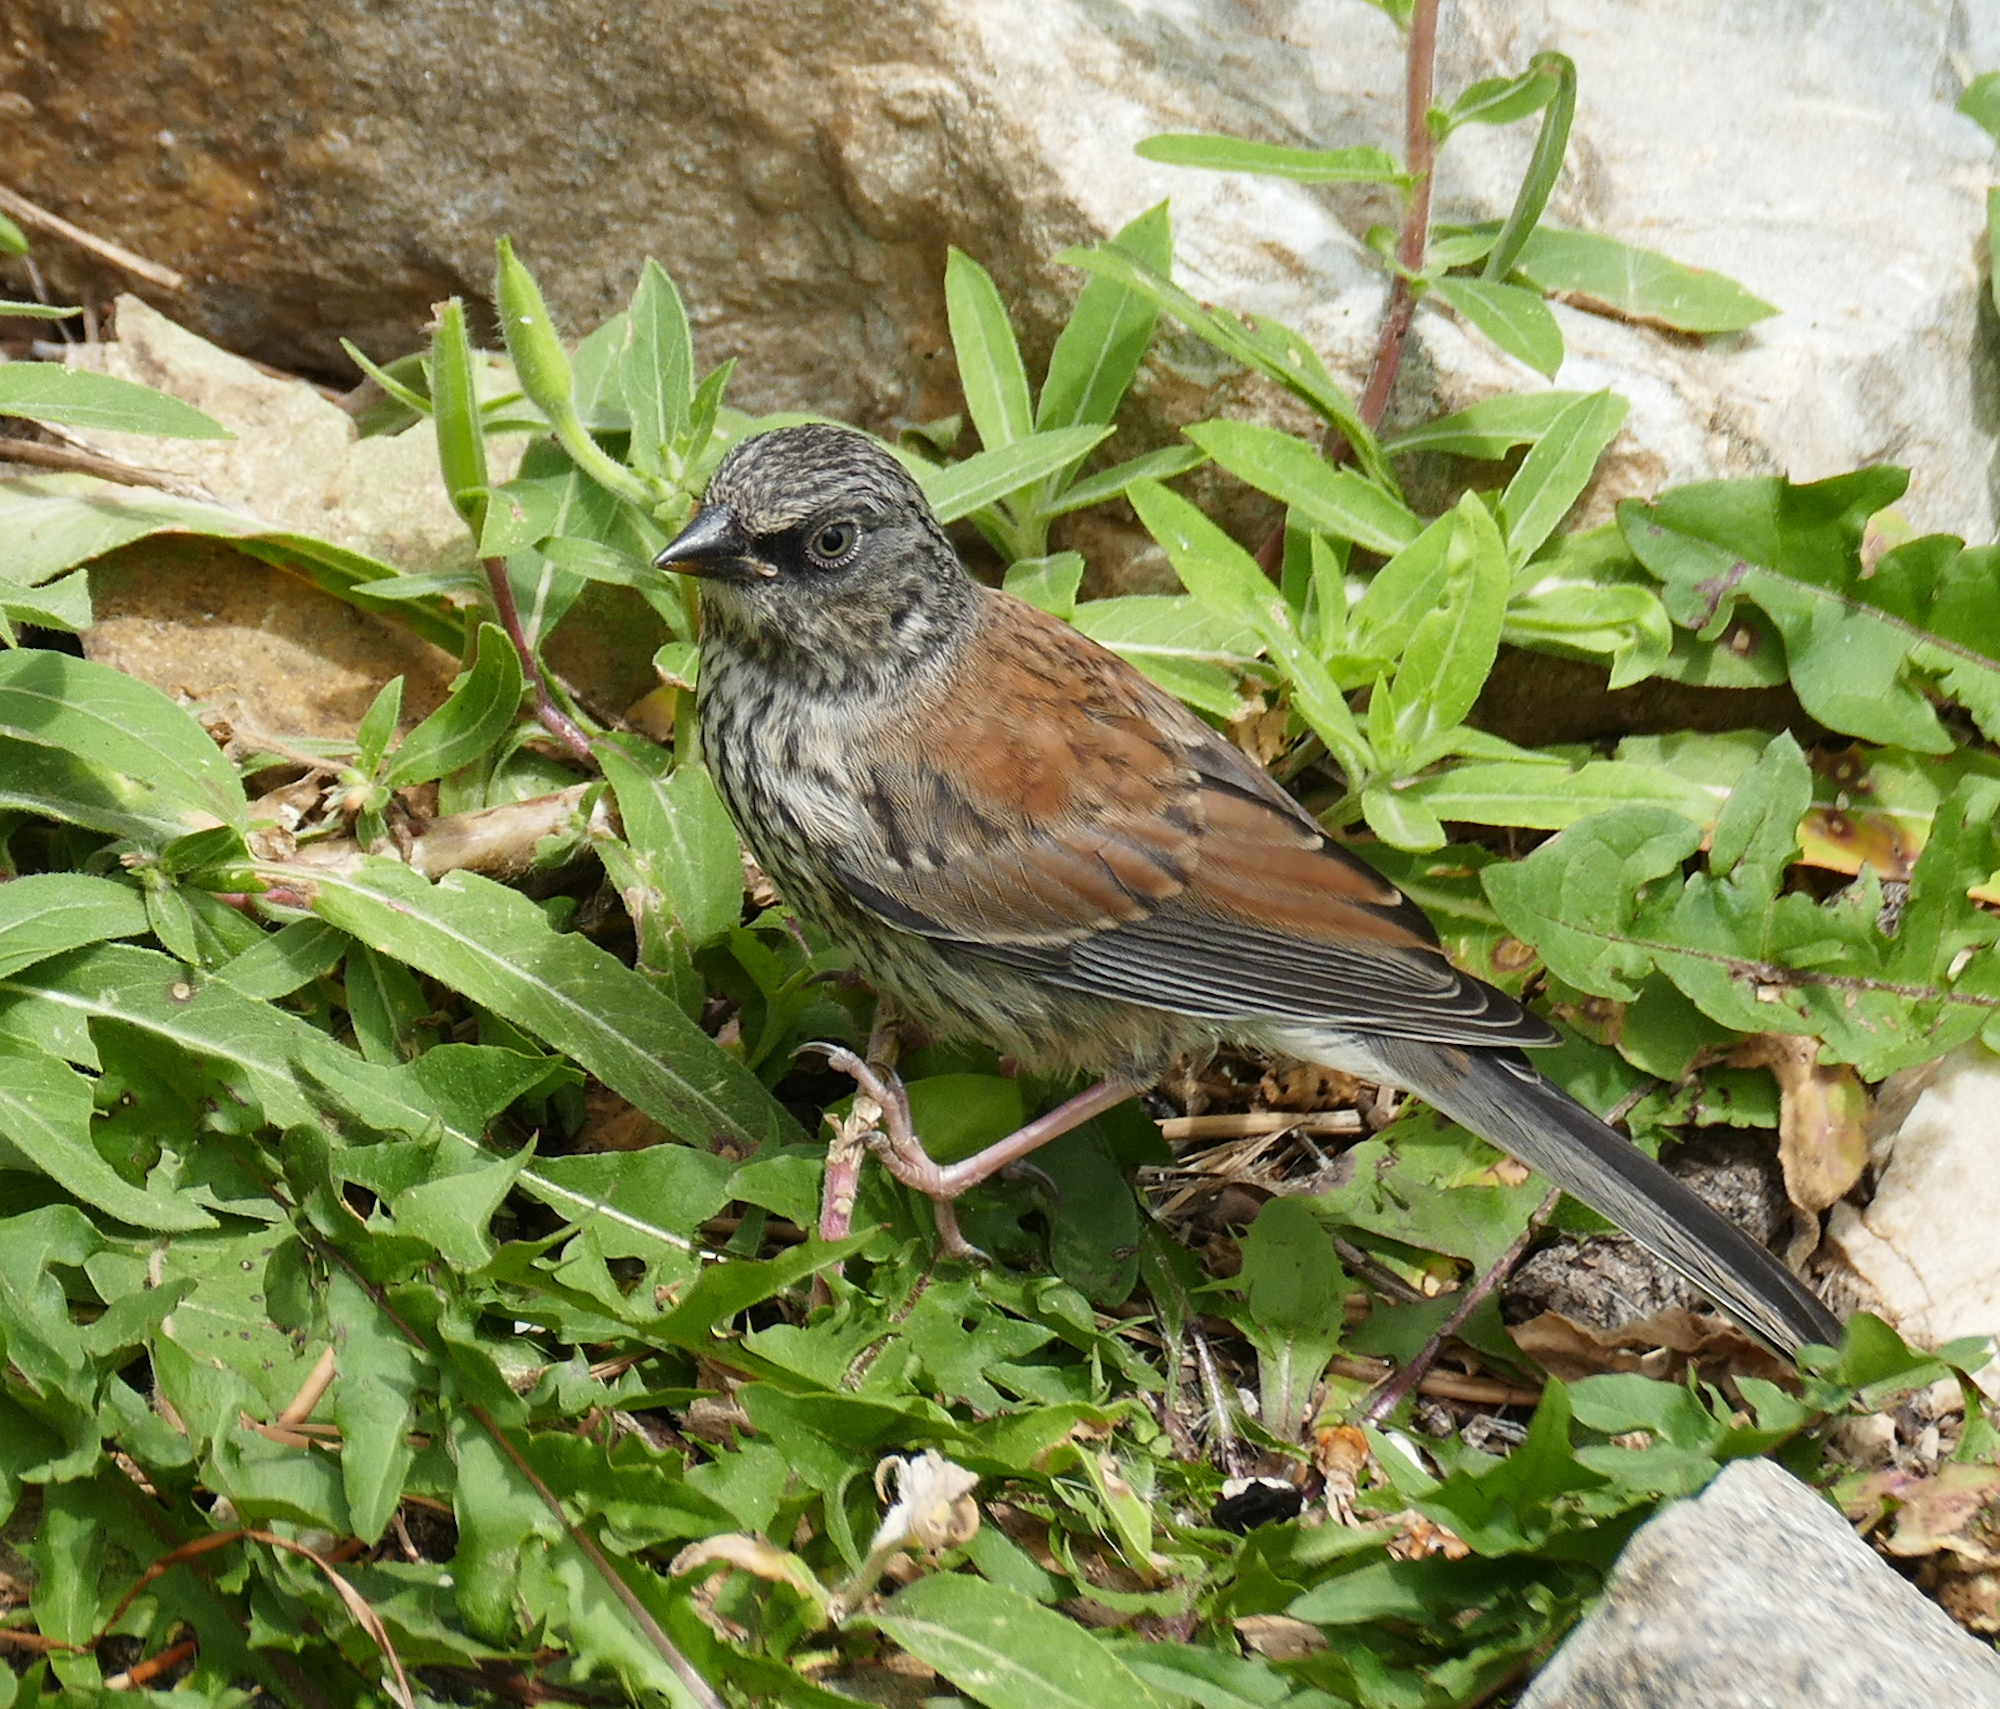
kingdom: Animalia
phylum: Chordata
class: Aves
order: Passeriformes
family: Passerellidae
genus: Junco
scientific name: Junco phaeonotus
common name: Yellow-eyed junco
